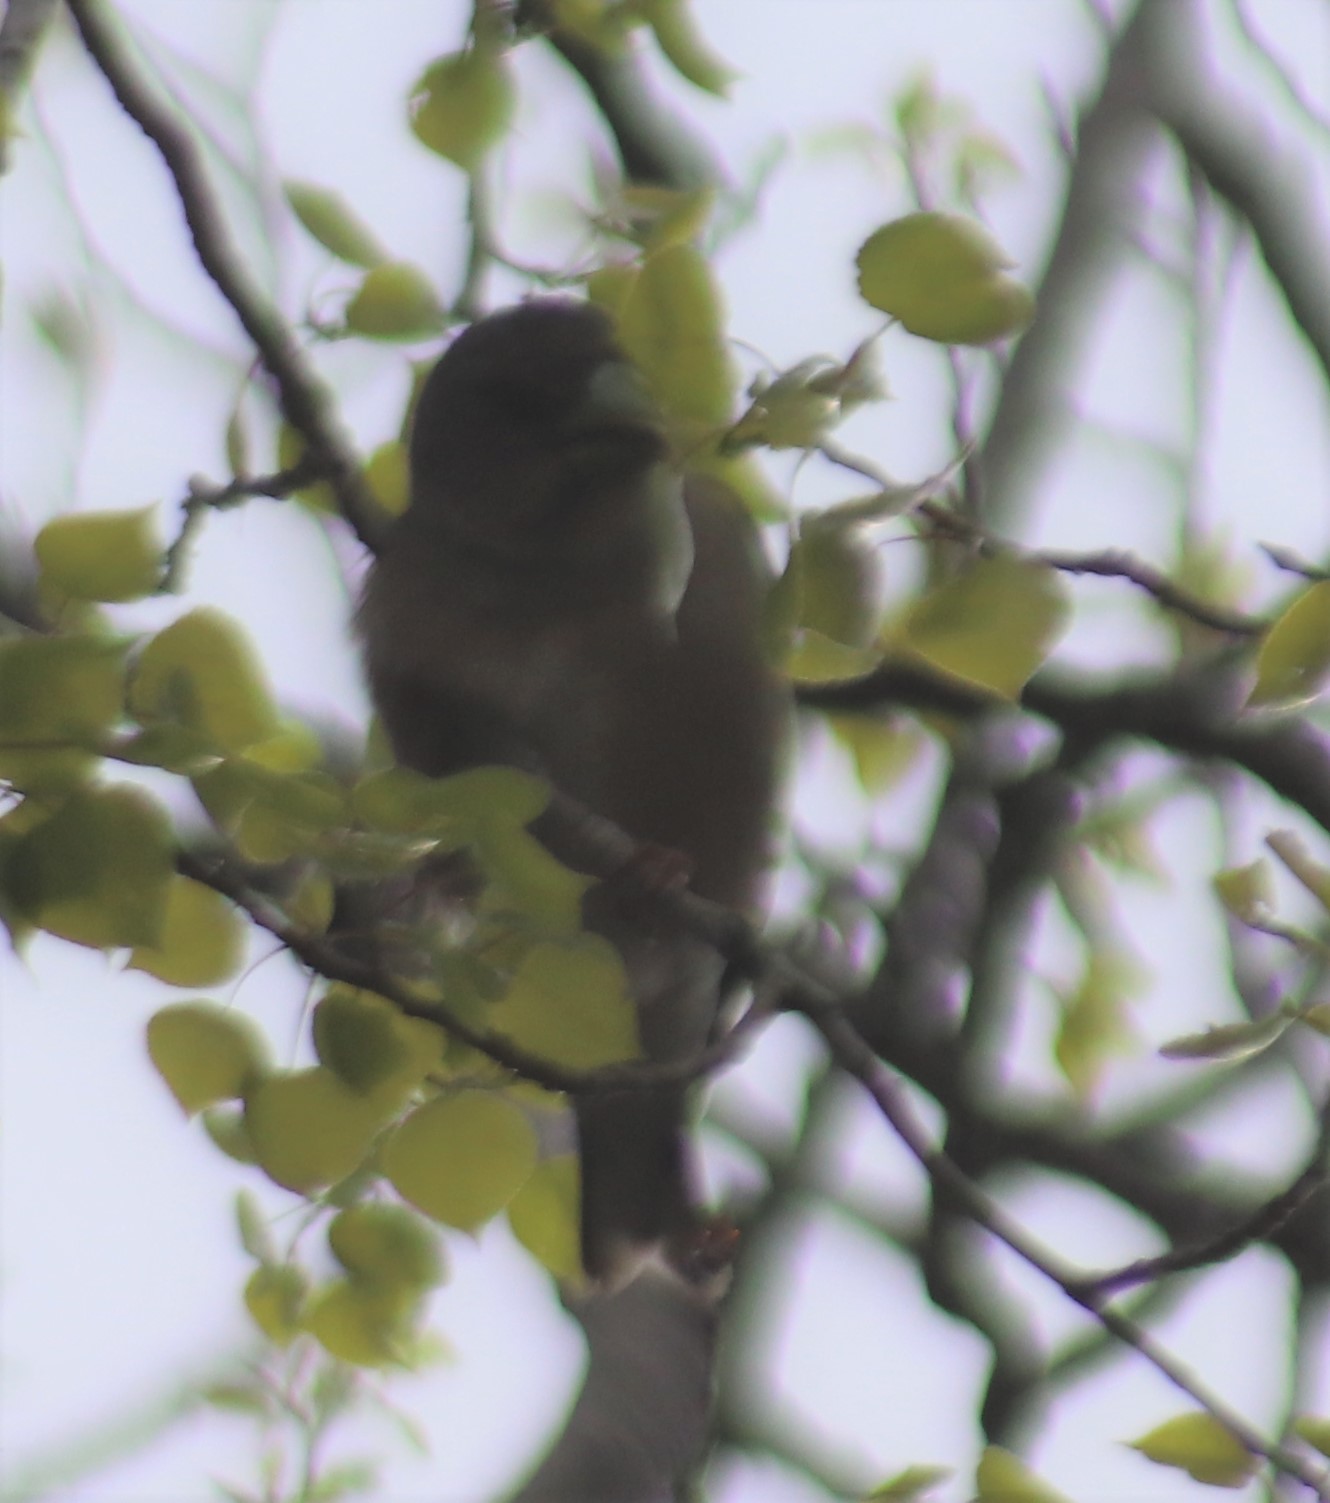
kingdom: Animalia
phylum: Chordata
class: Aves
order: Passeriformes
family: Fringillidae
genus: Hesperiphona
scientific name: Hesperiphona vespertina
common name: Evening grosbeak
